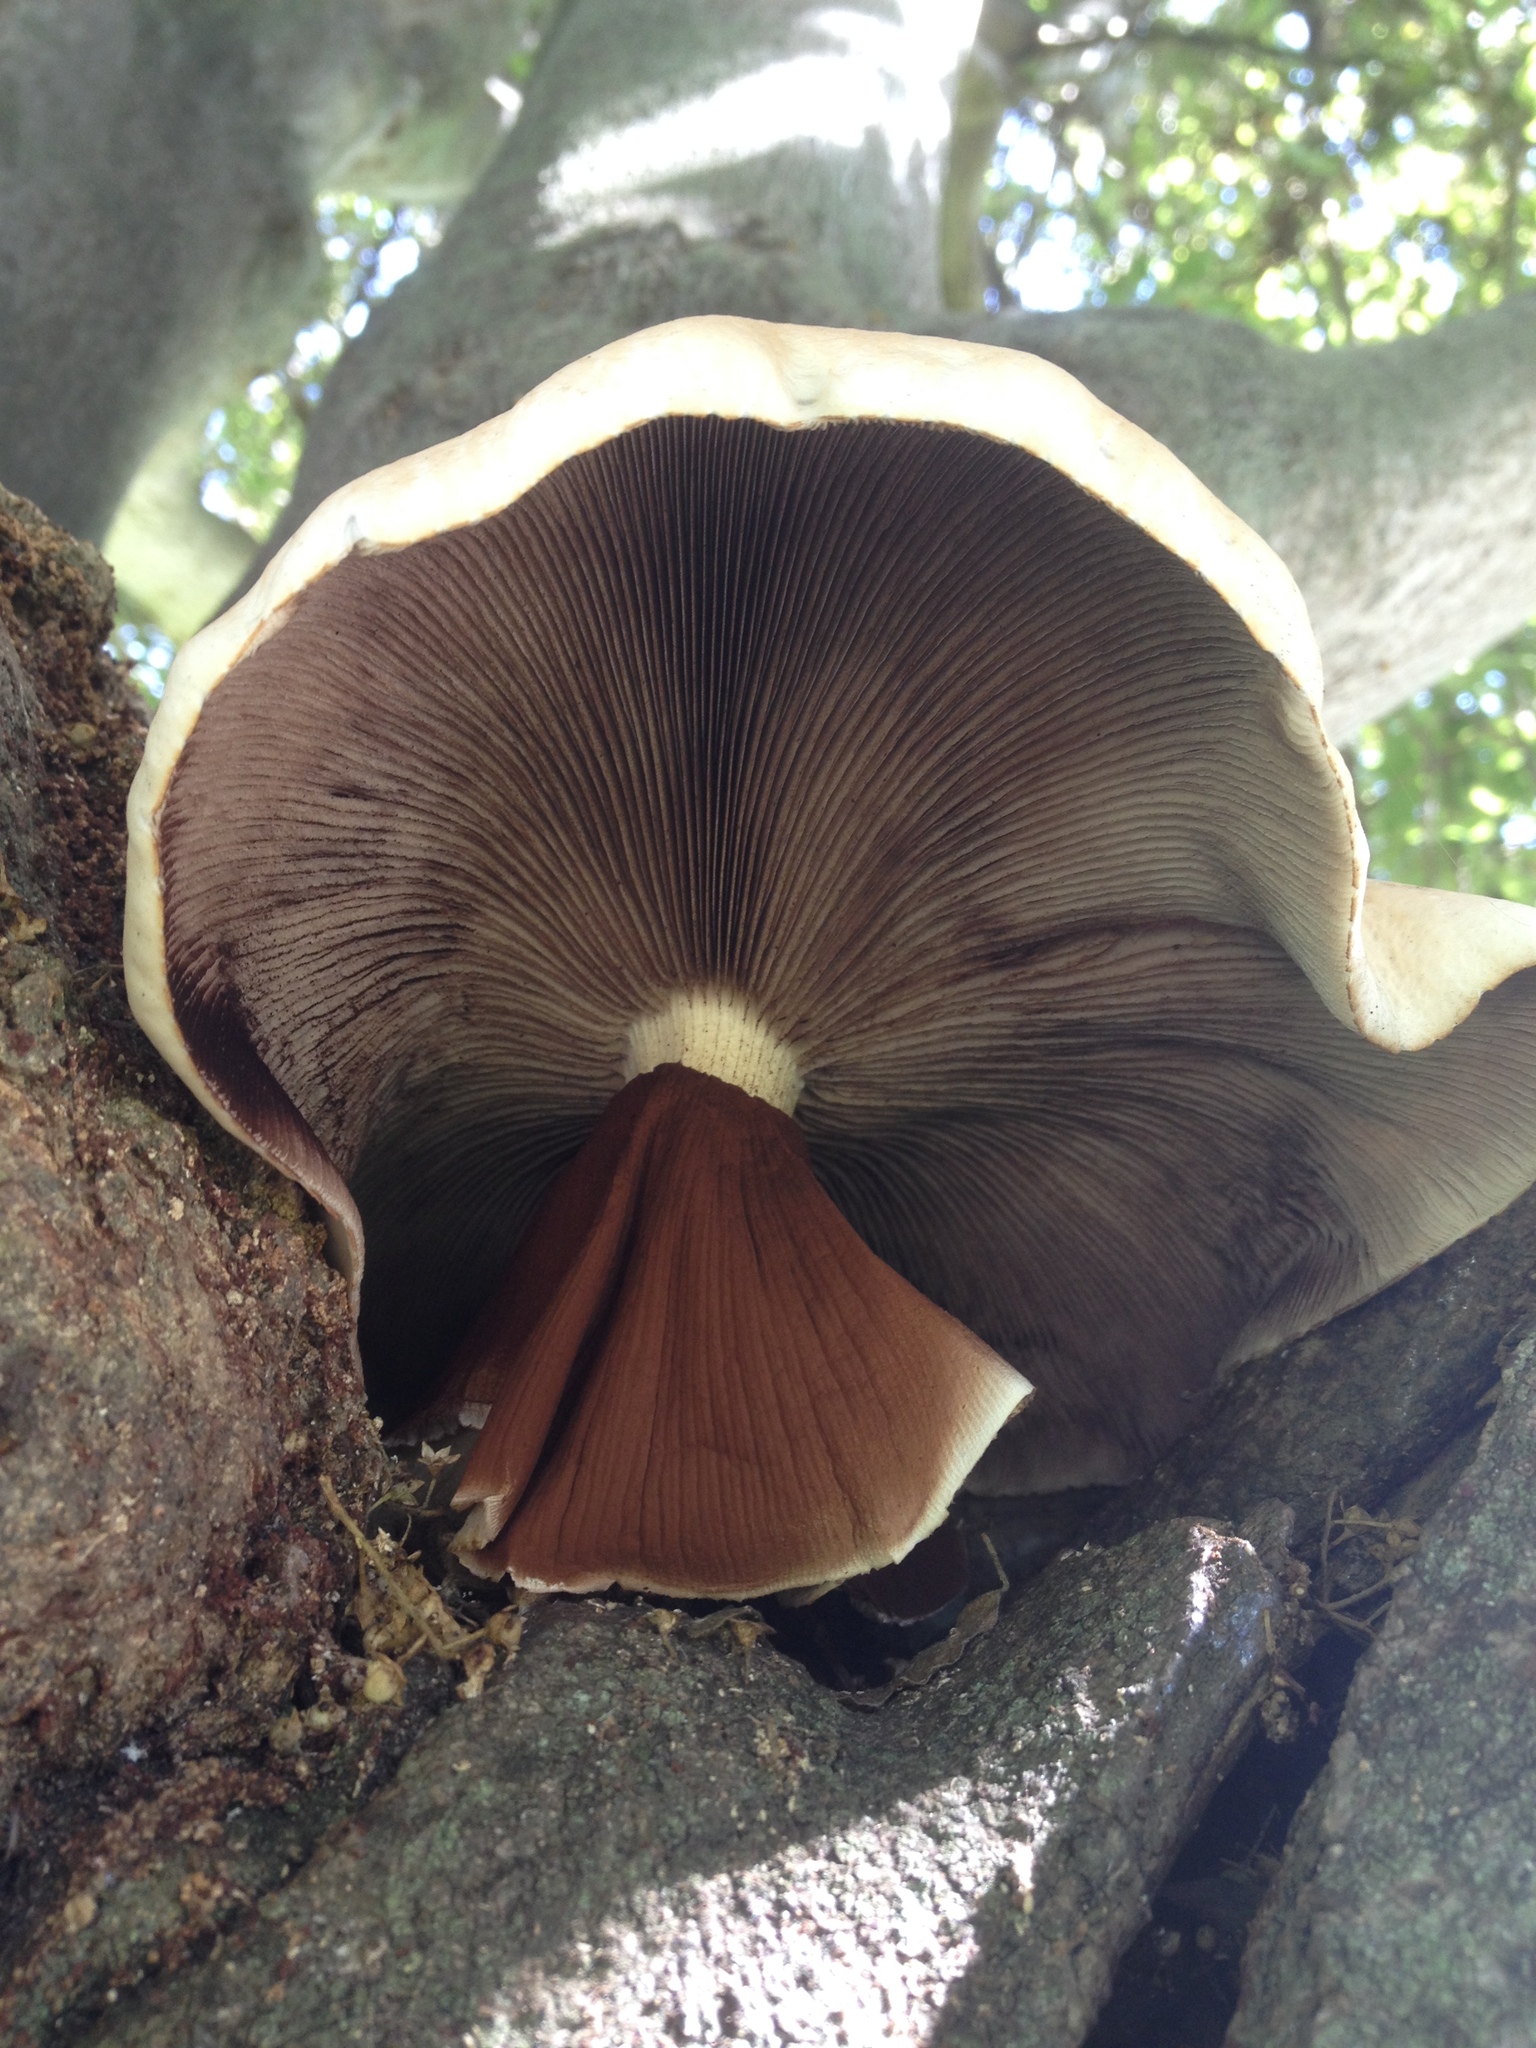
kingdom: Fungi
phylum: Basidiomycota
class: Agaricomycetes
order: Agaricales
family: Tubariaceae
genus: Cyclocybe
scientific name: Cyclocybe parasitica
